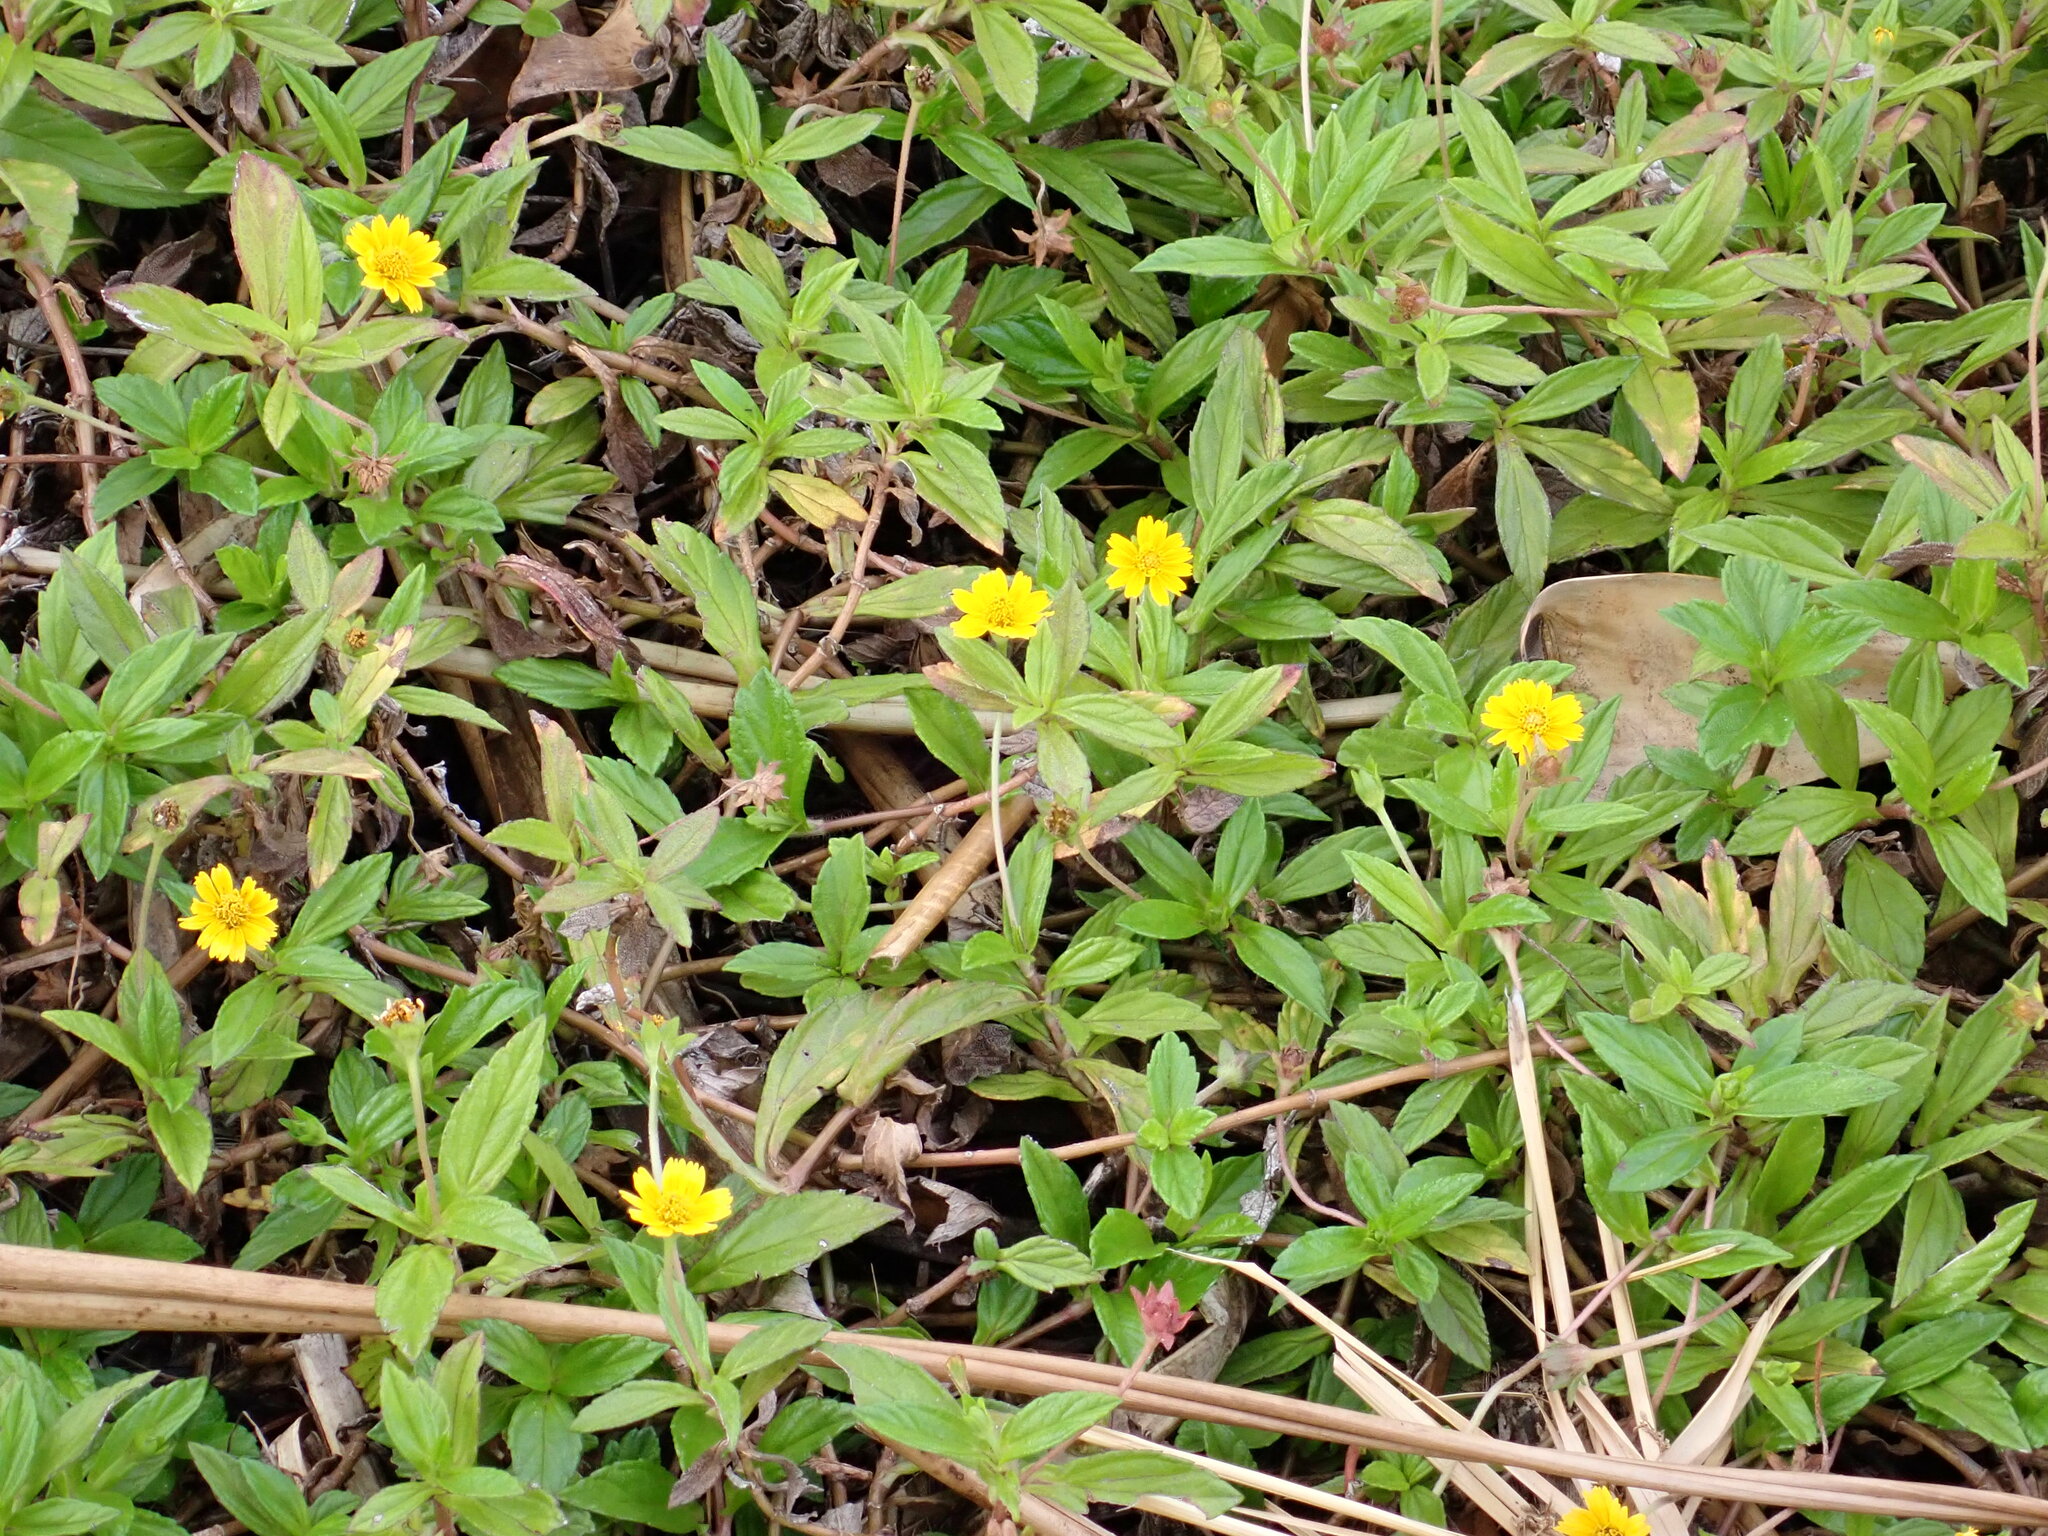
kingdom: Plantae
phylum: Tracheophyta
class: Magnoliopsida
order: Asterales
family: Asteraceae
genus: Sphagneticola
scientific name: Sphagneticola trilobata
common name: Bay biscayne creeping-oxeye
